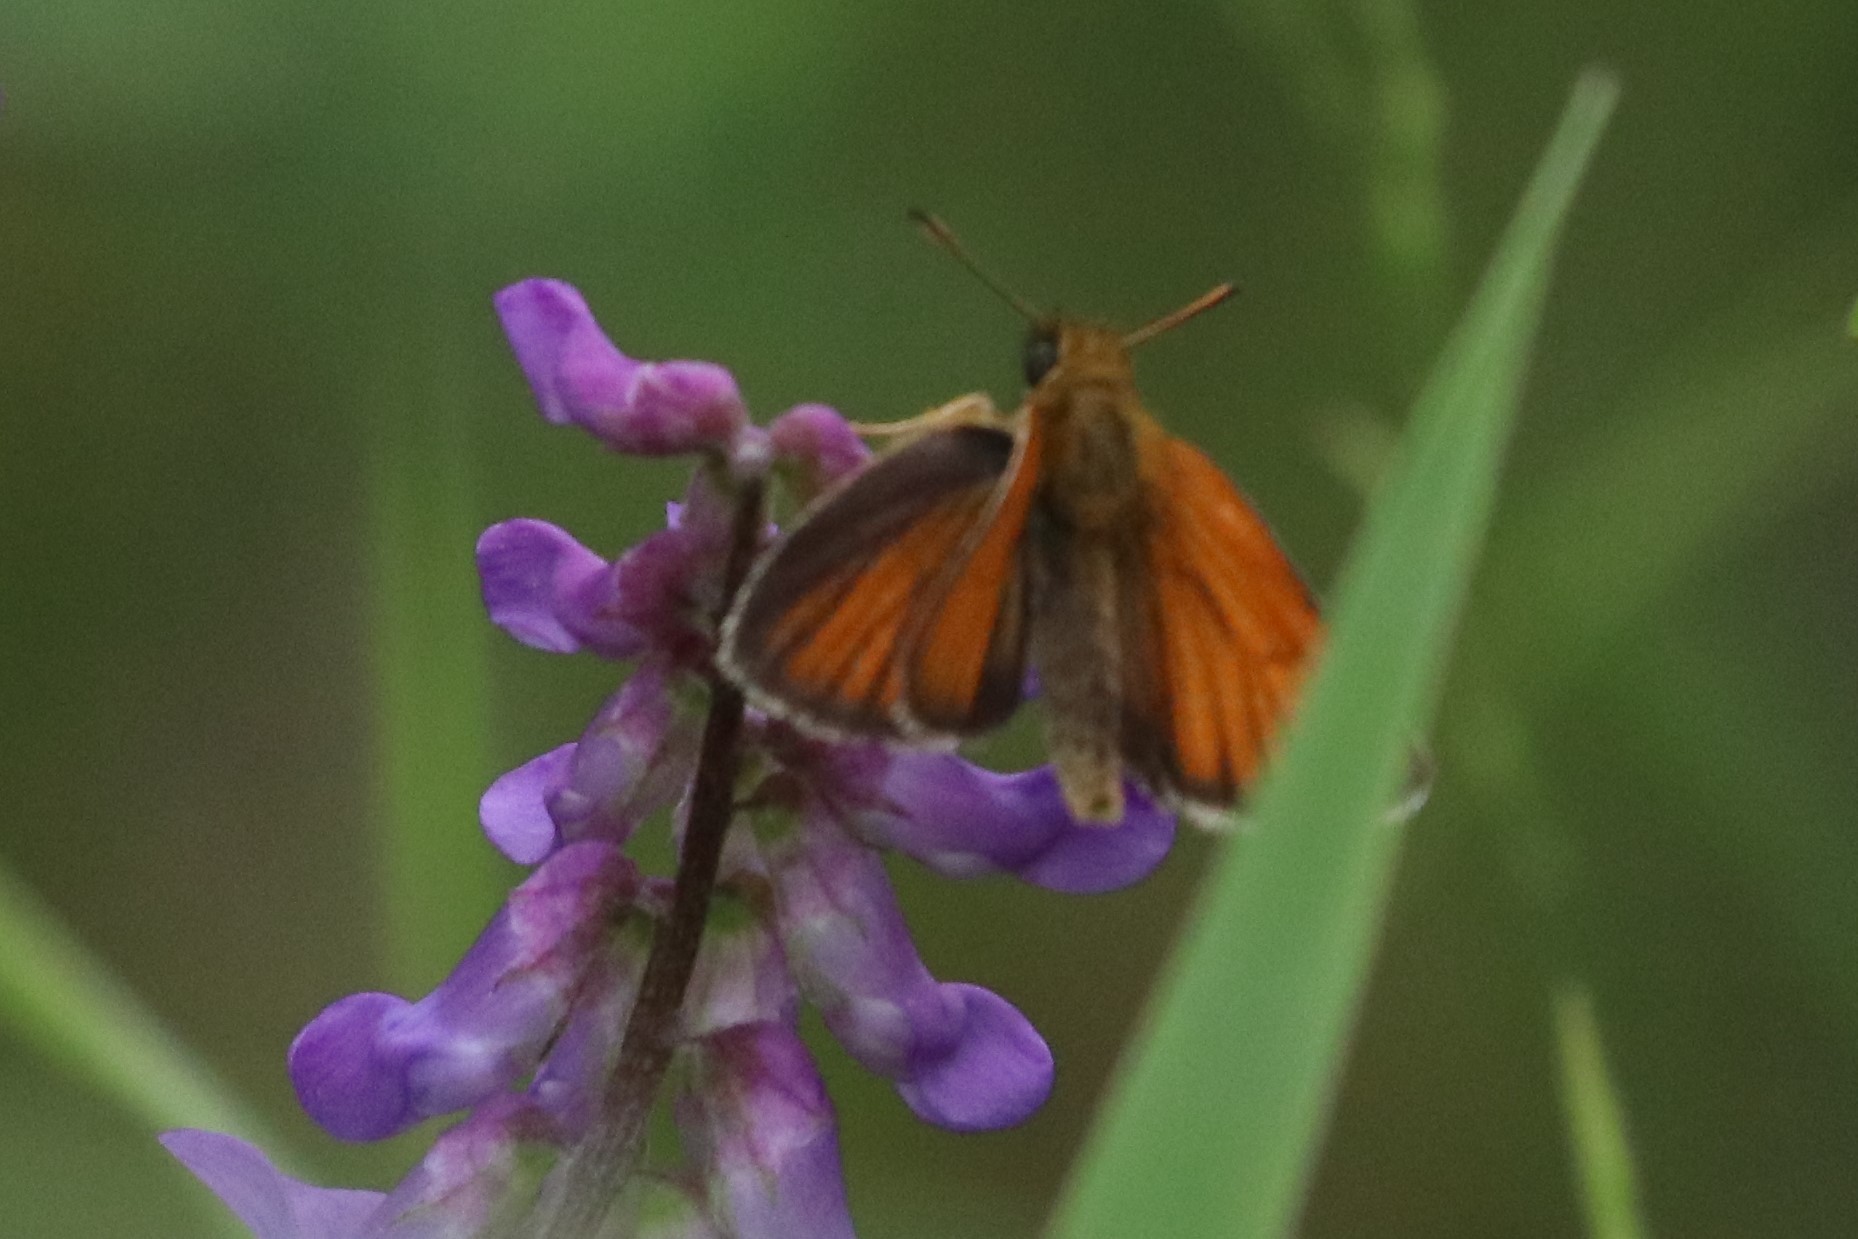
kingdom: Animalia
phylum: Arthropoda
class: Insecta
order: Lepidoptera
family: Hesperiidae
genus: Thymelicus
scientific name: Thymelicus lineola
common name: Essex skipper
